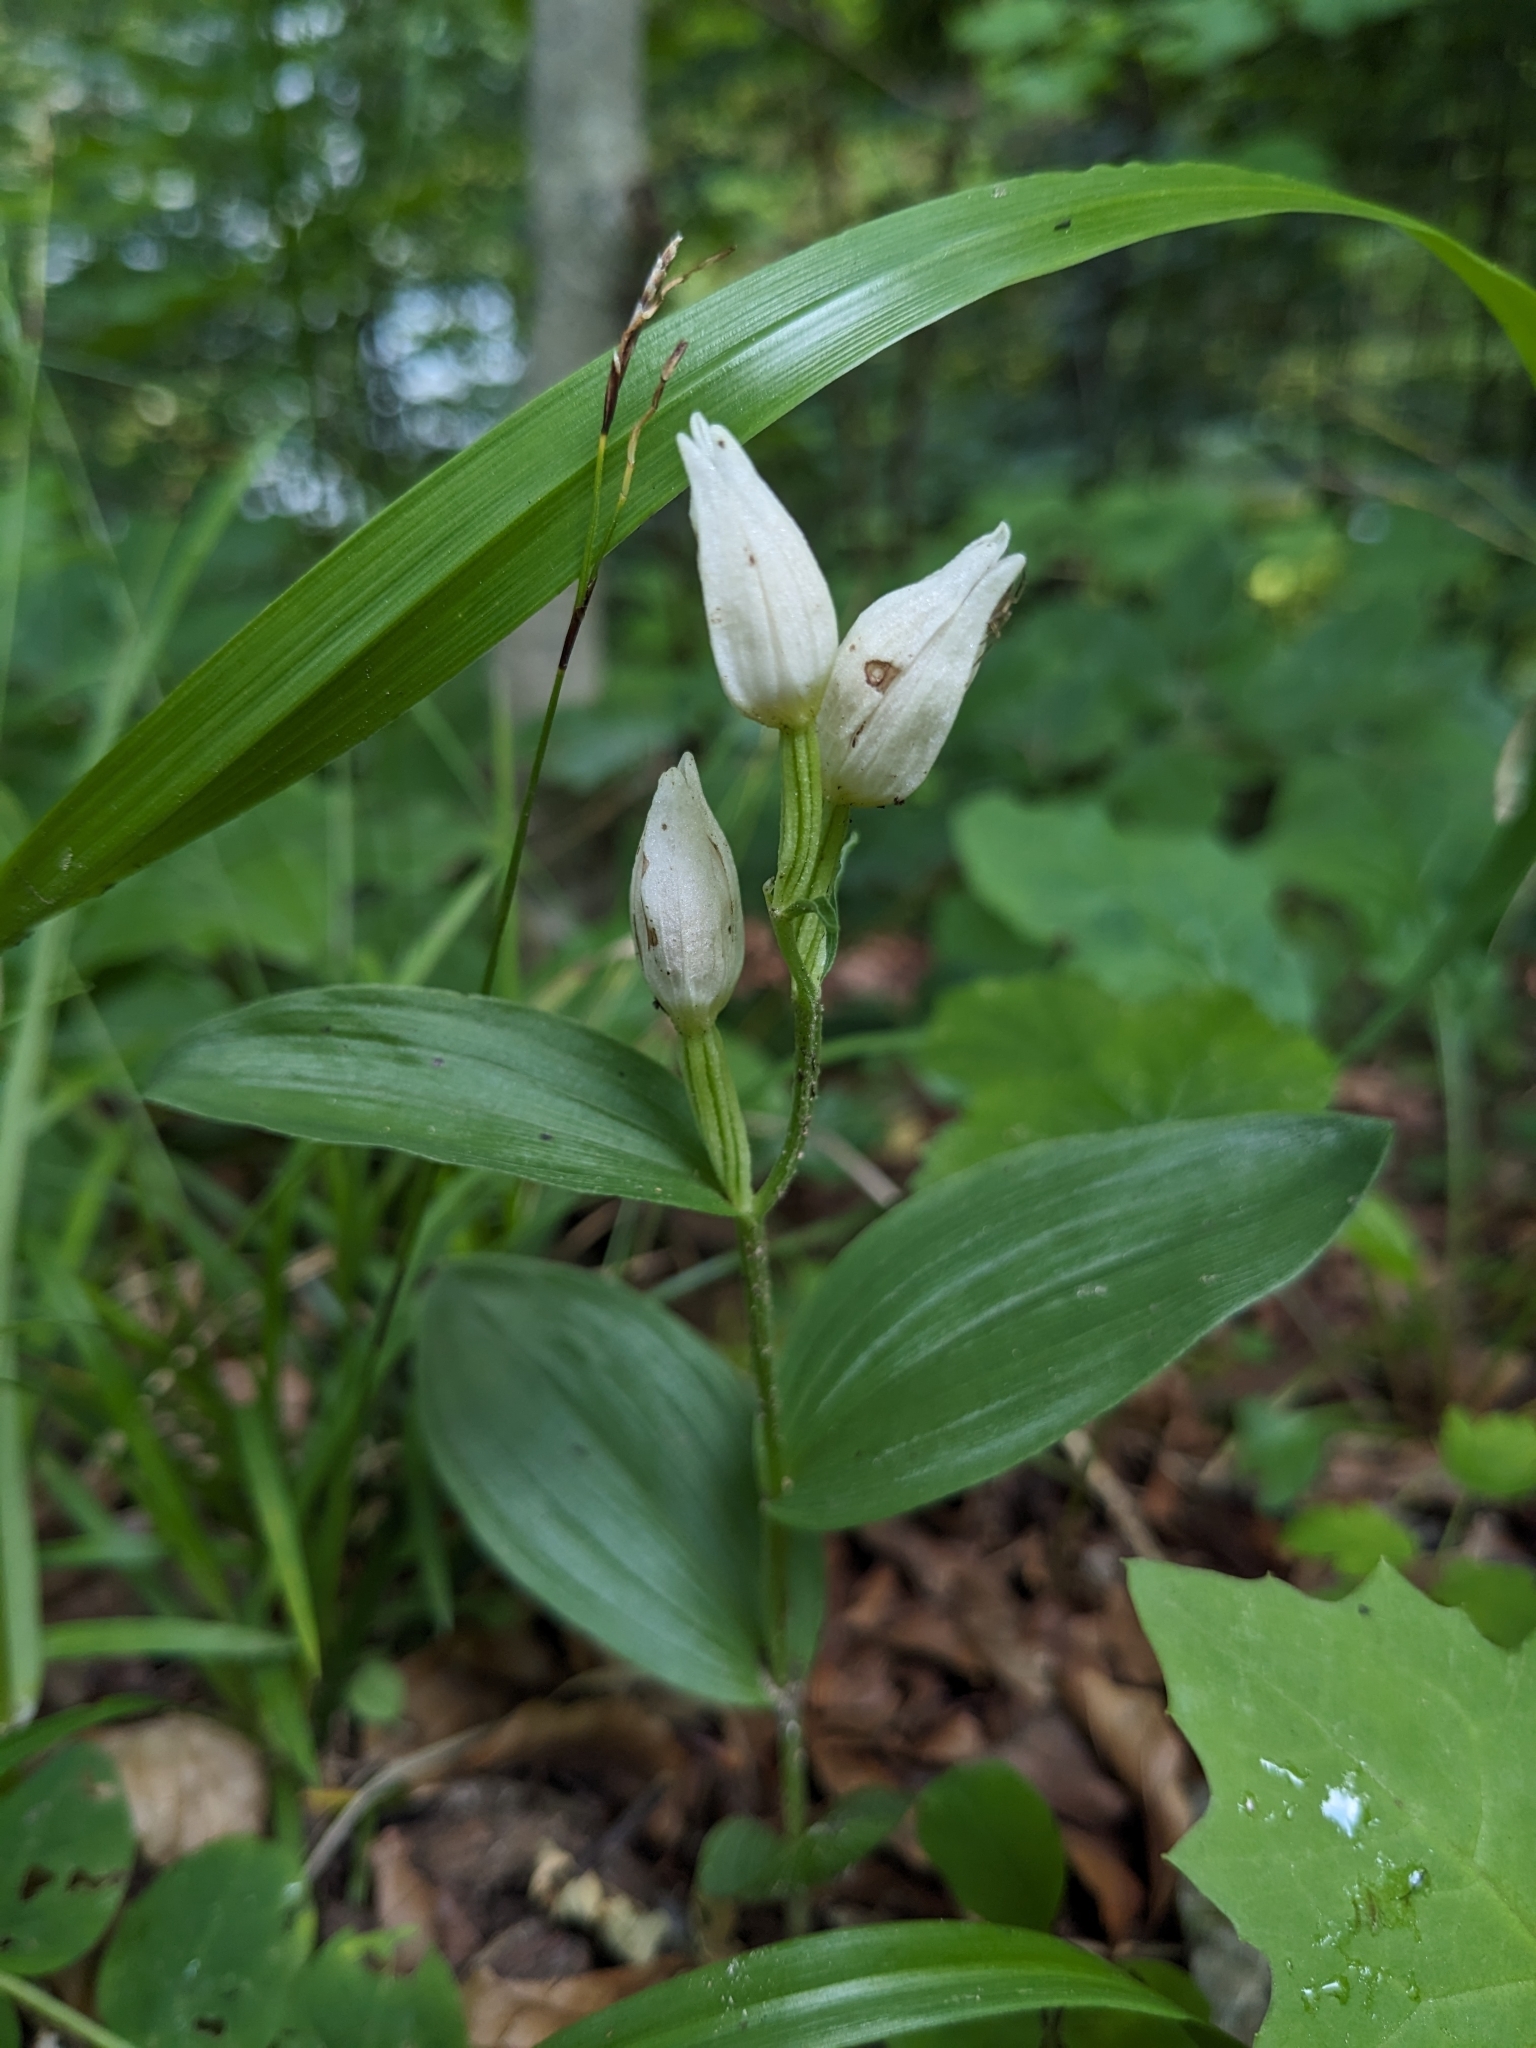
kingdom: Plantae
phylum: Tracheophyta
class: Liliopsida
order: Asparagales
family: Orchidaceae
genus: Cephalanthera
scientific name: Cephalanthera damasonium
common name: White helleborine
